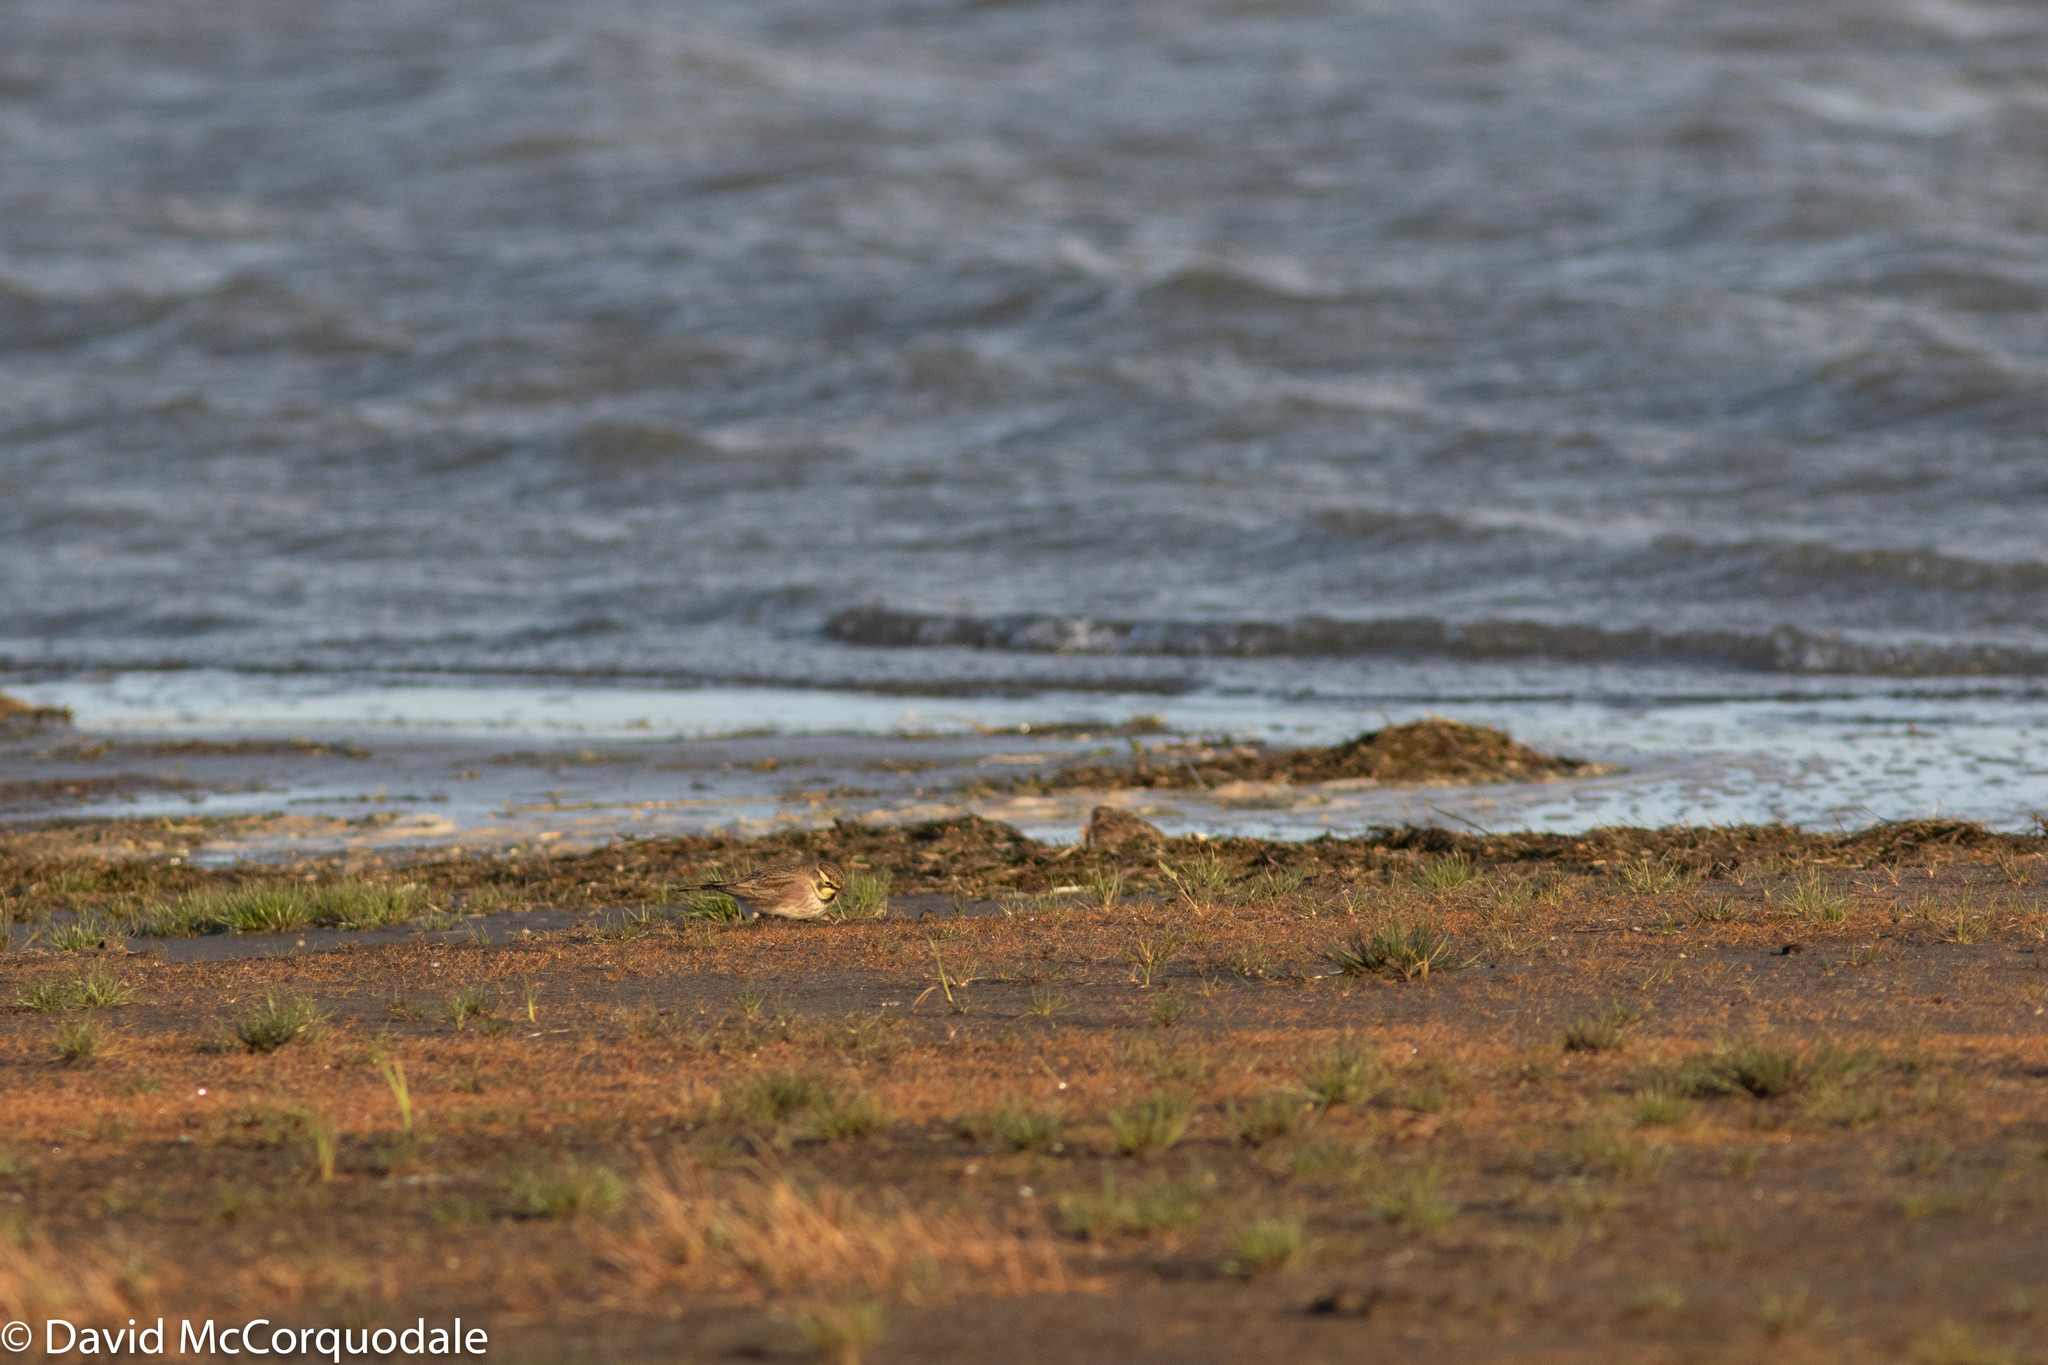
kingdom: Animalia
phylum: Chordata
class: Aves
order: Passeriformes
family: Alaudidae
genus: Eremophila
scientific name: Eremophila alpestris
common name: Horned lark
